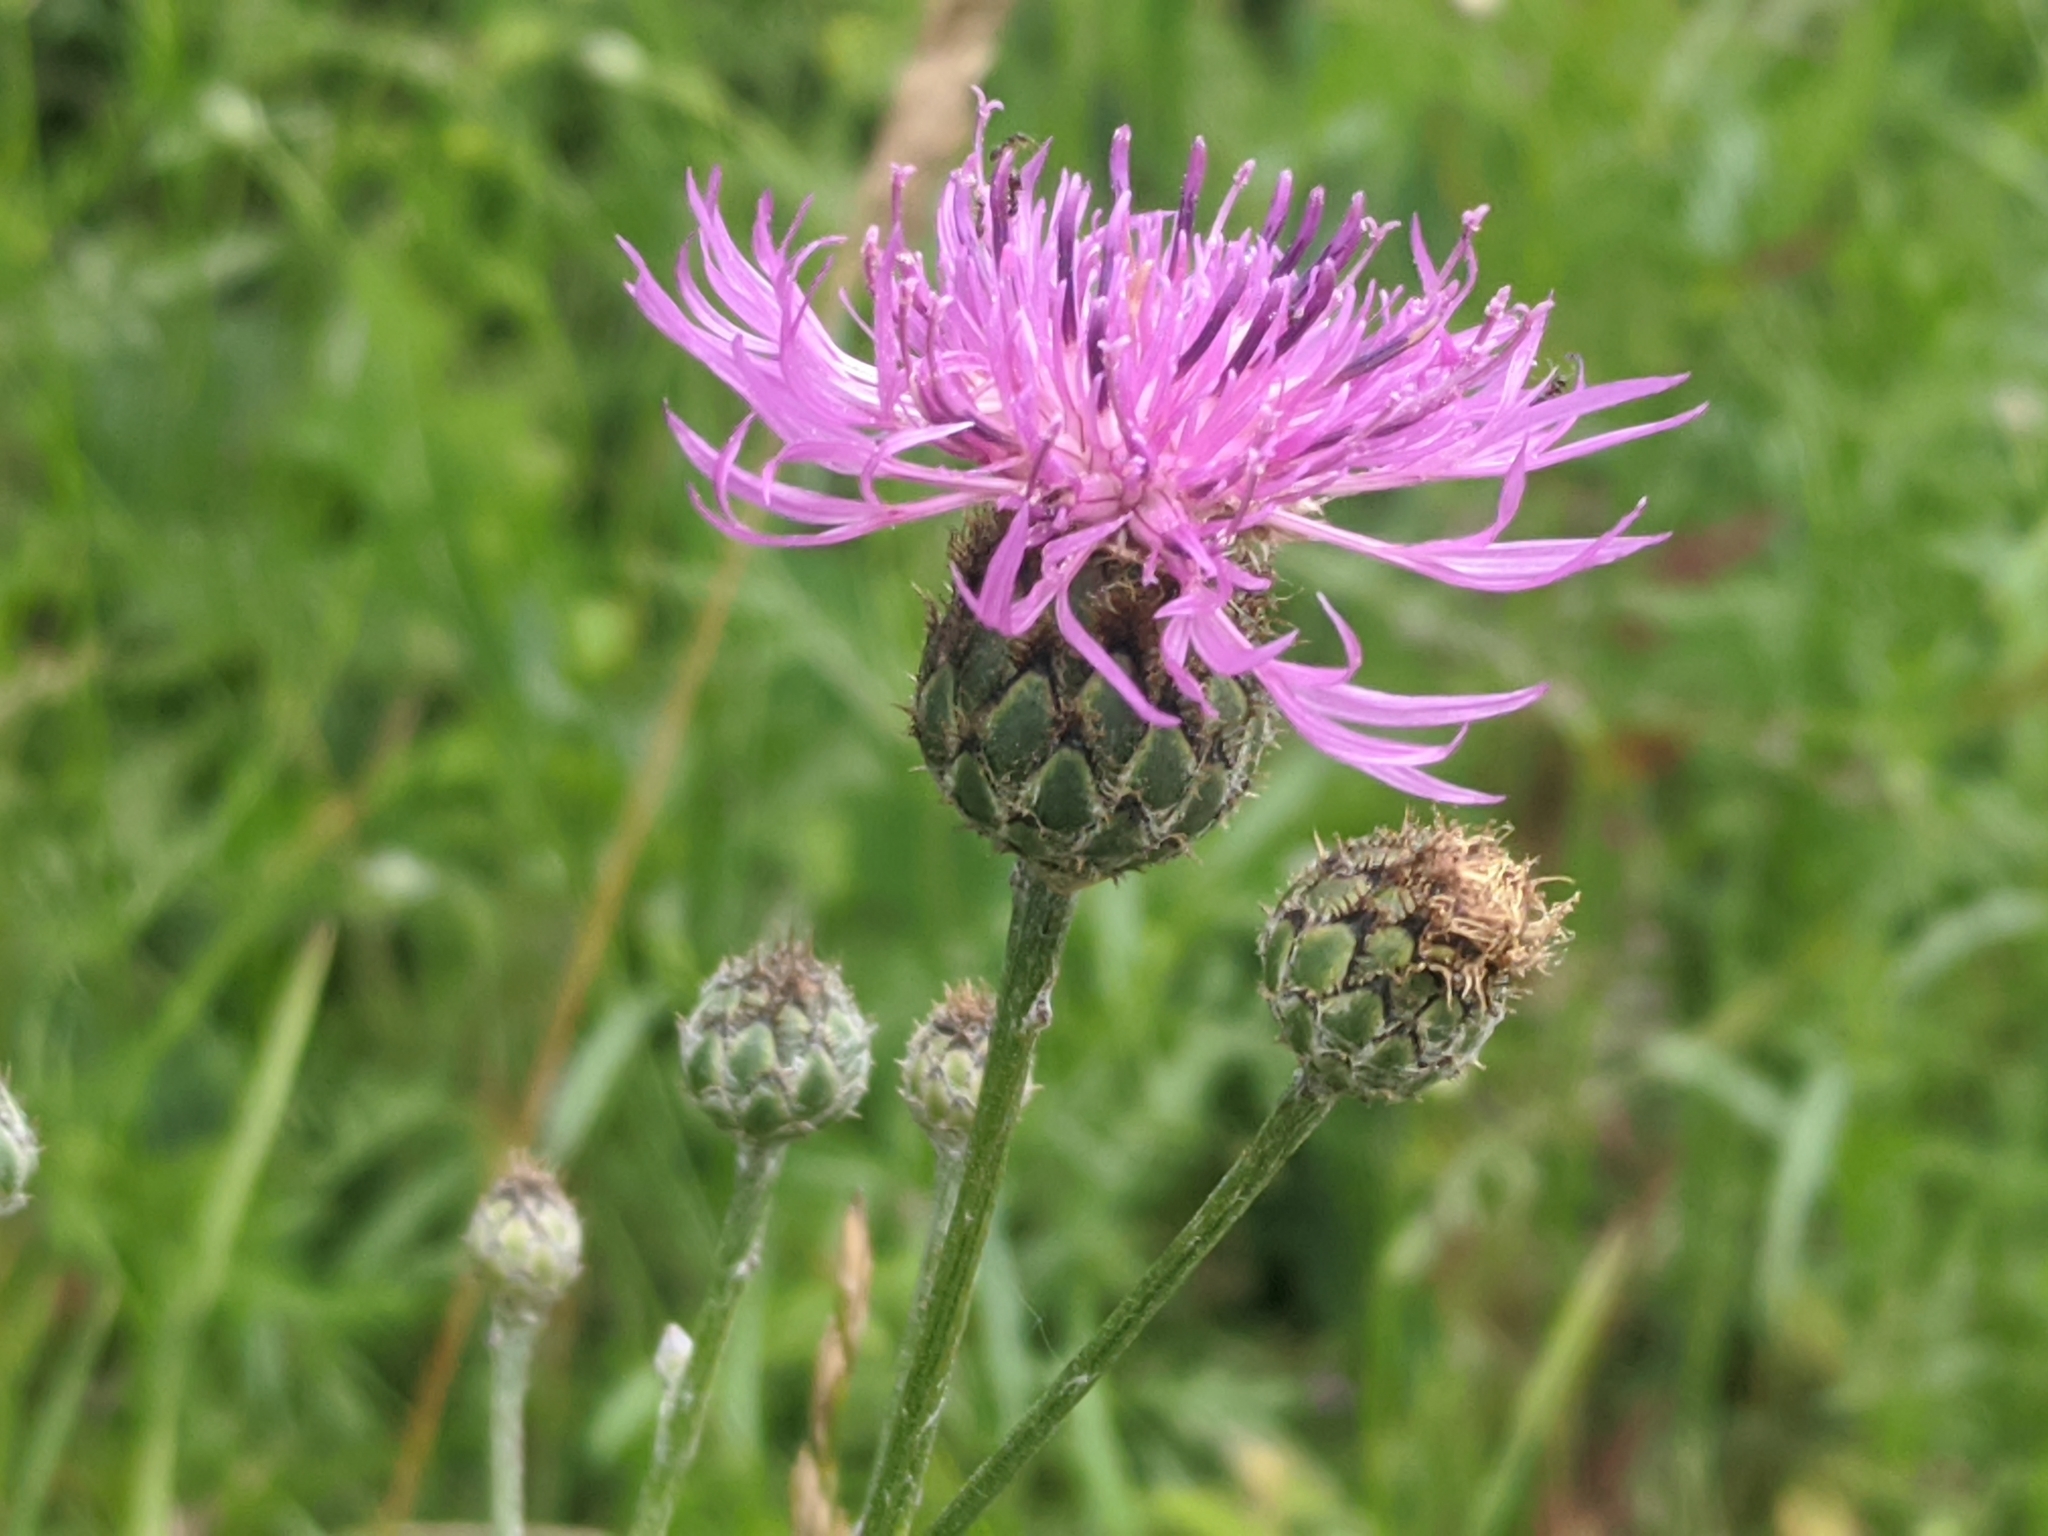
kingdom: Plantae
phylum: Tracheophyta
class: Magnoliopsida
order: Asterales
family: Asteraceae
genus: Centaurea
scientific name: Centaurea apiculata
